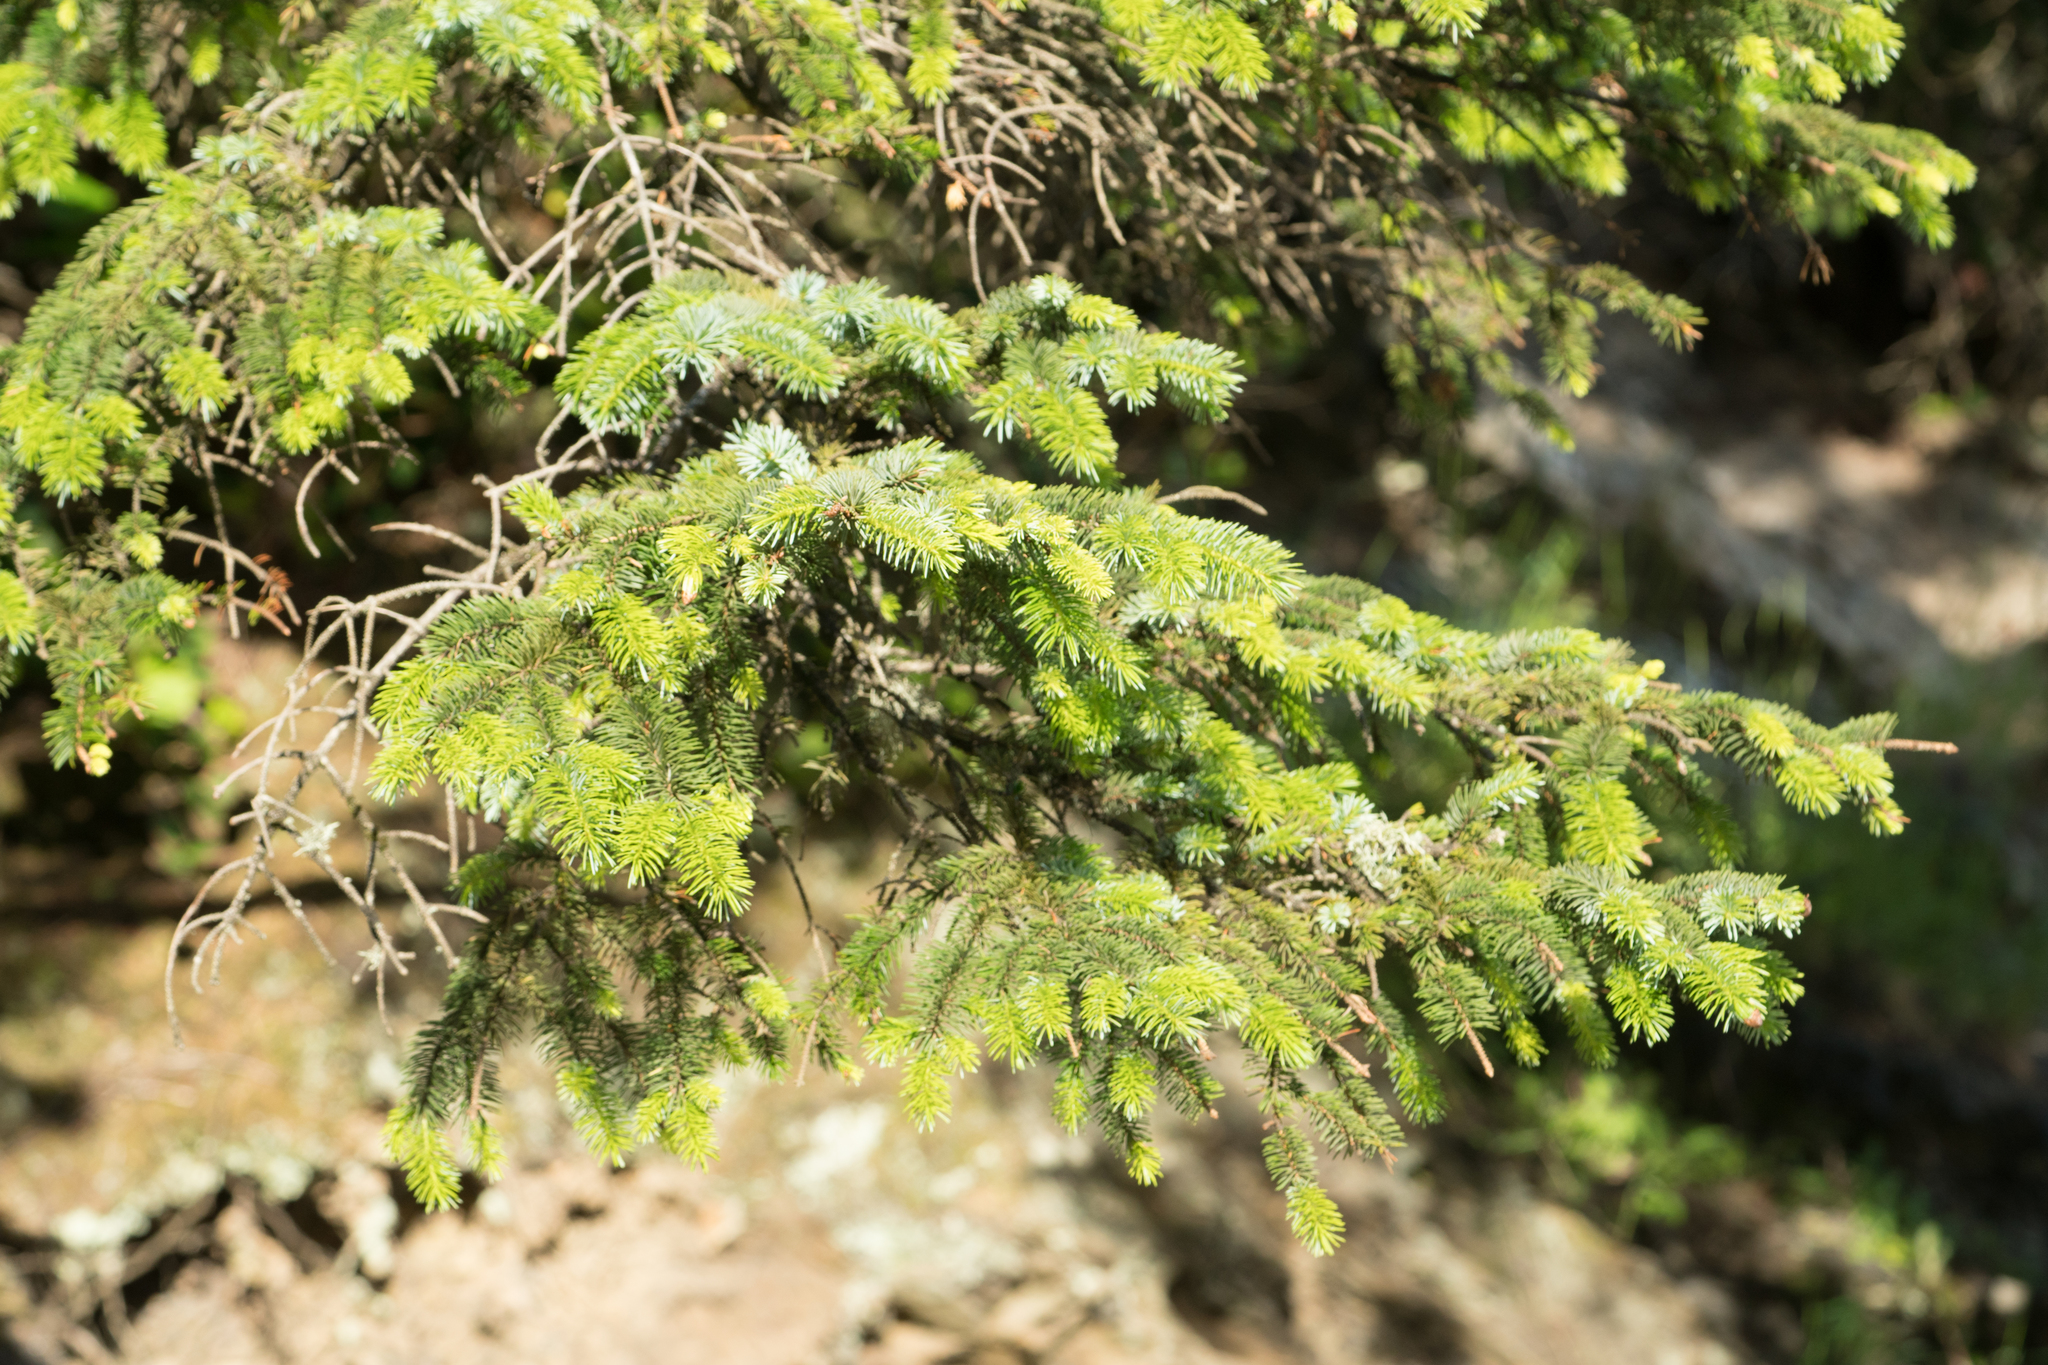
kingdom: Plantae
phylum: Tracheophyta
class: Pinopsida
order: Pinales
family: Pinaceae
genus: Picea
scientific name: Picea sitchensis
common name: Sitka spruce
